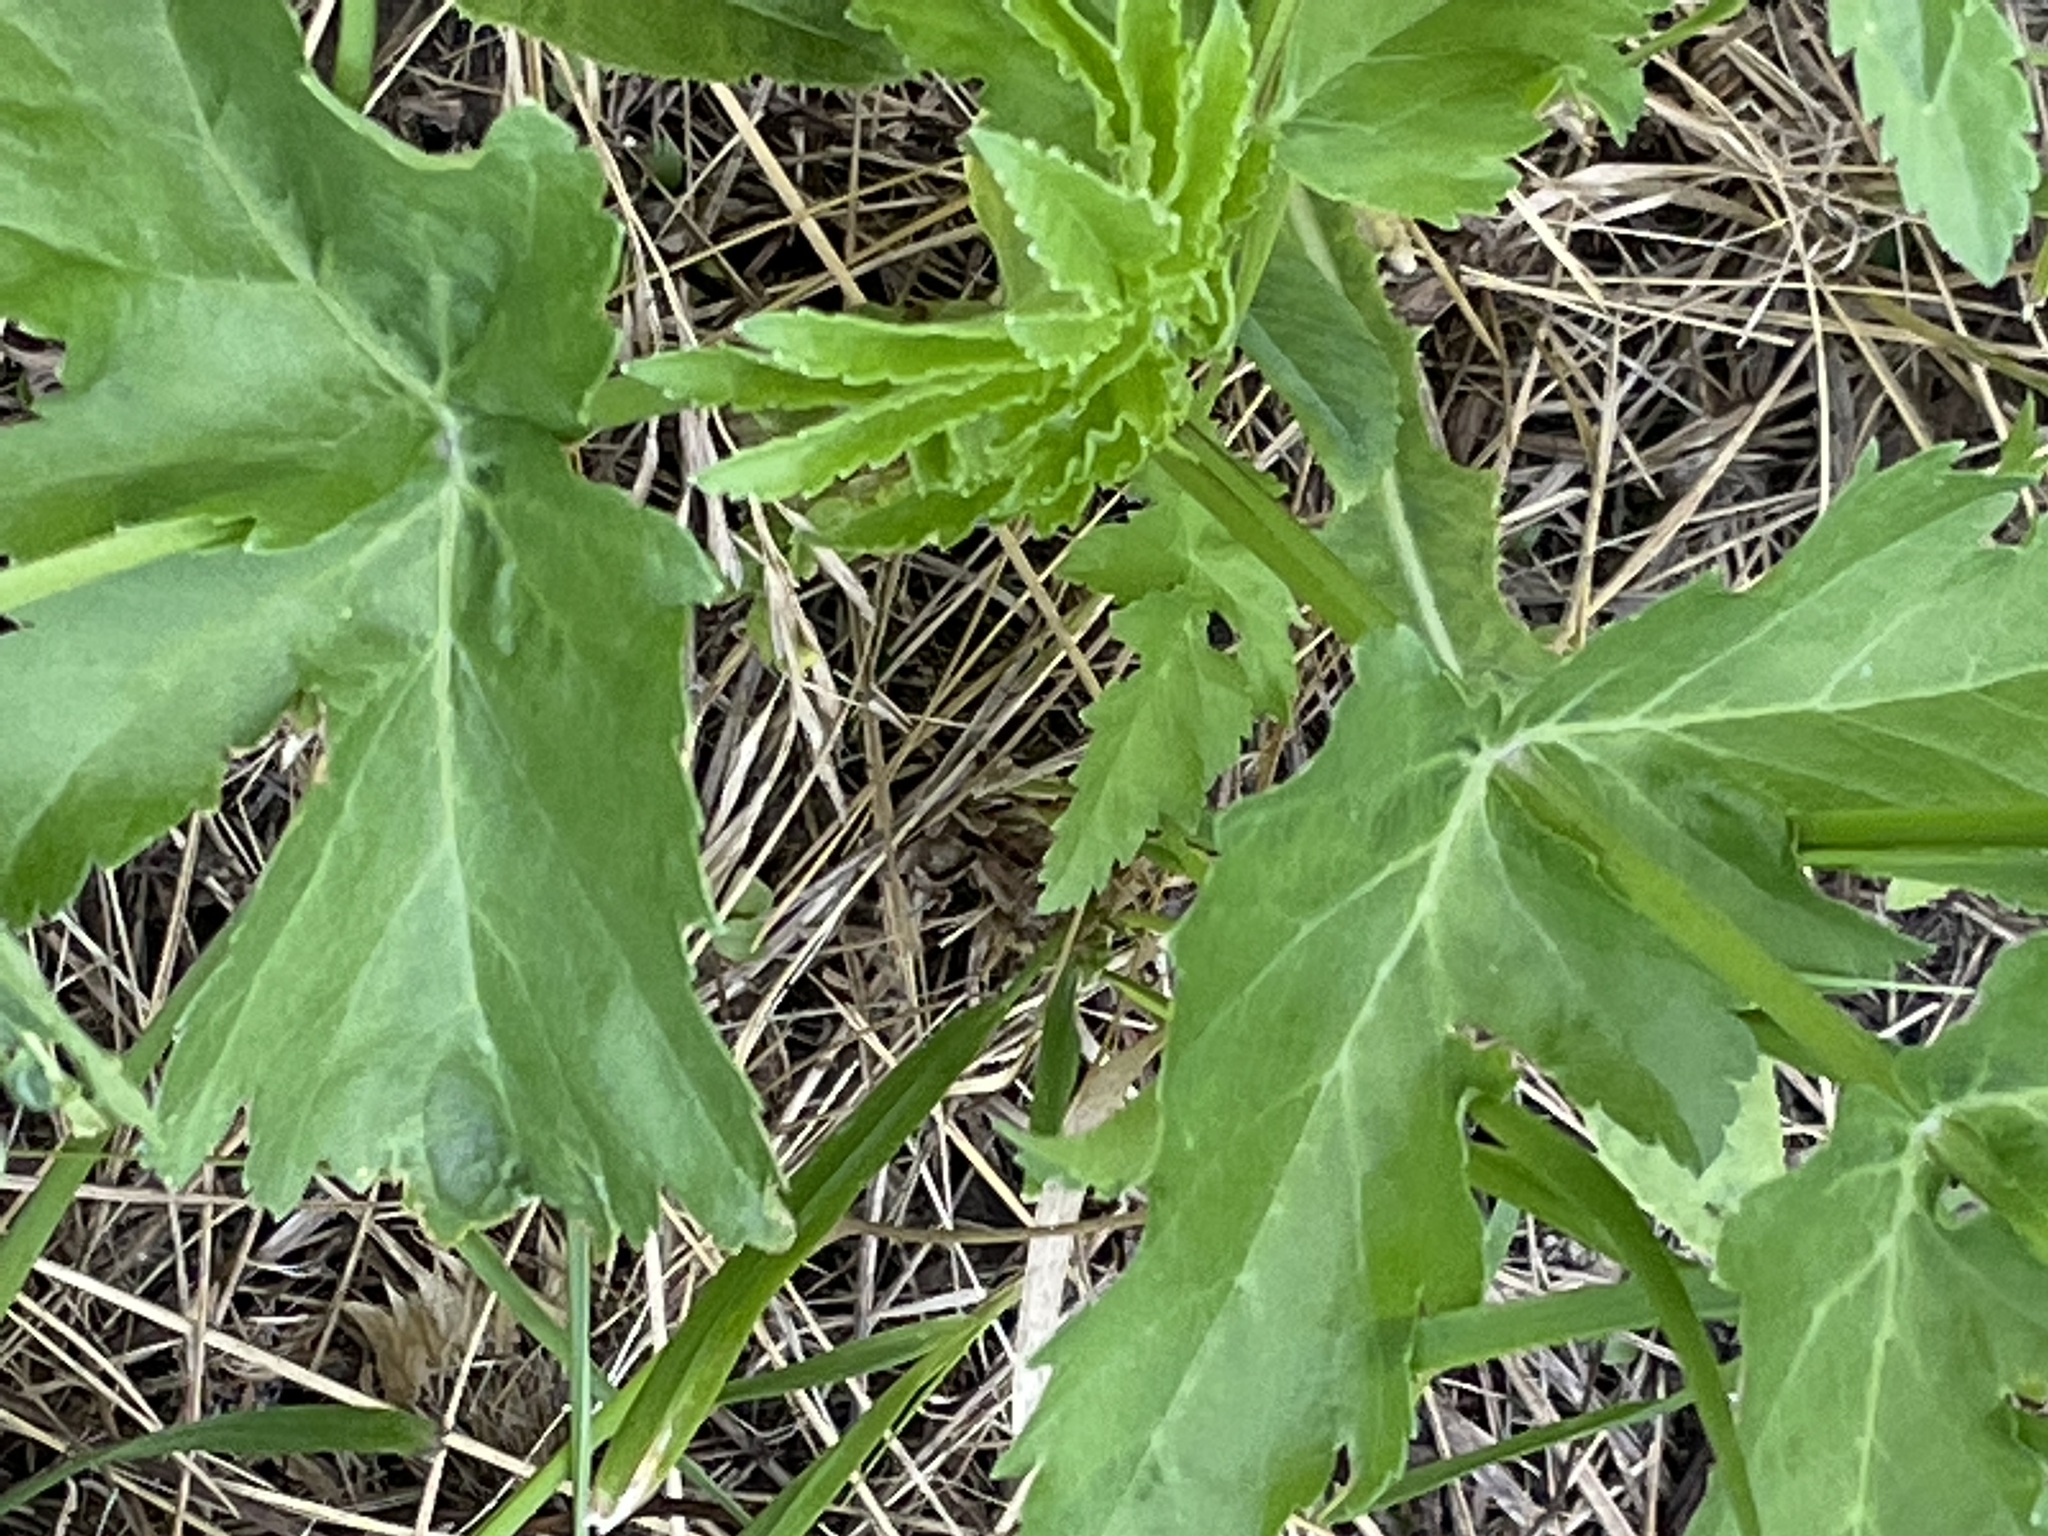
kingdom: Plantae
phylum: Tracheophyta
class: Magnoliopsida
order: Apiales
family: Apiaceae
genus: Heracleum
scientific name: Heracleum sphondylium
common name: Hogweed
